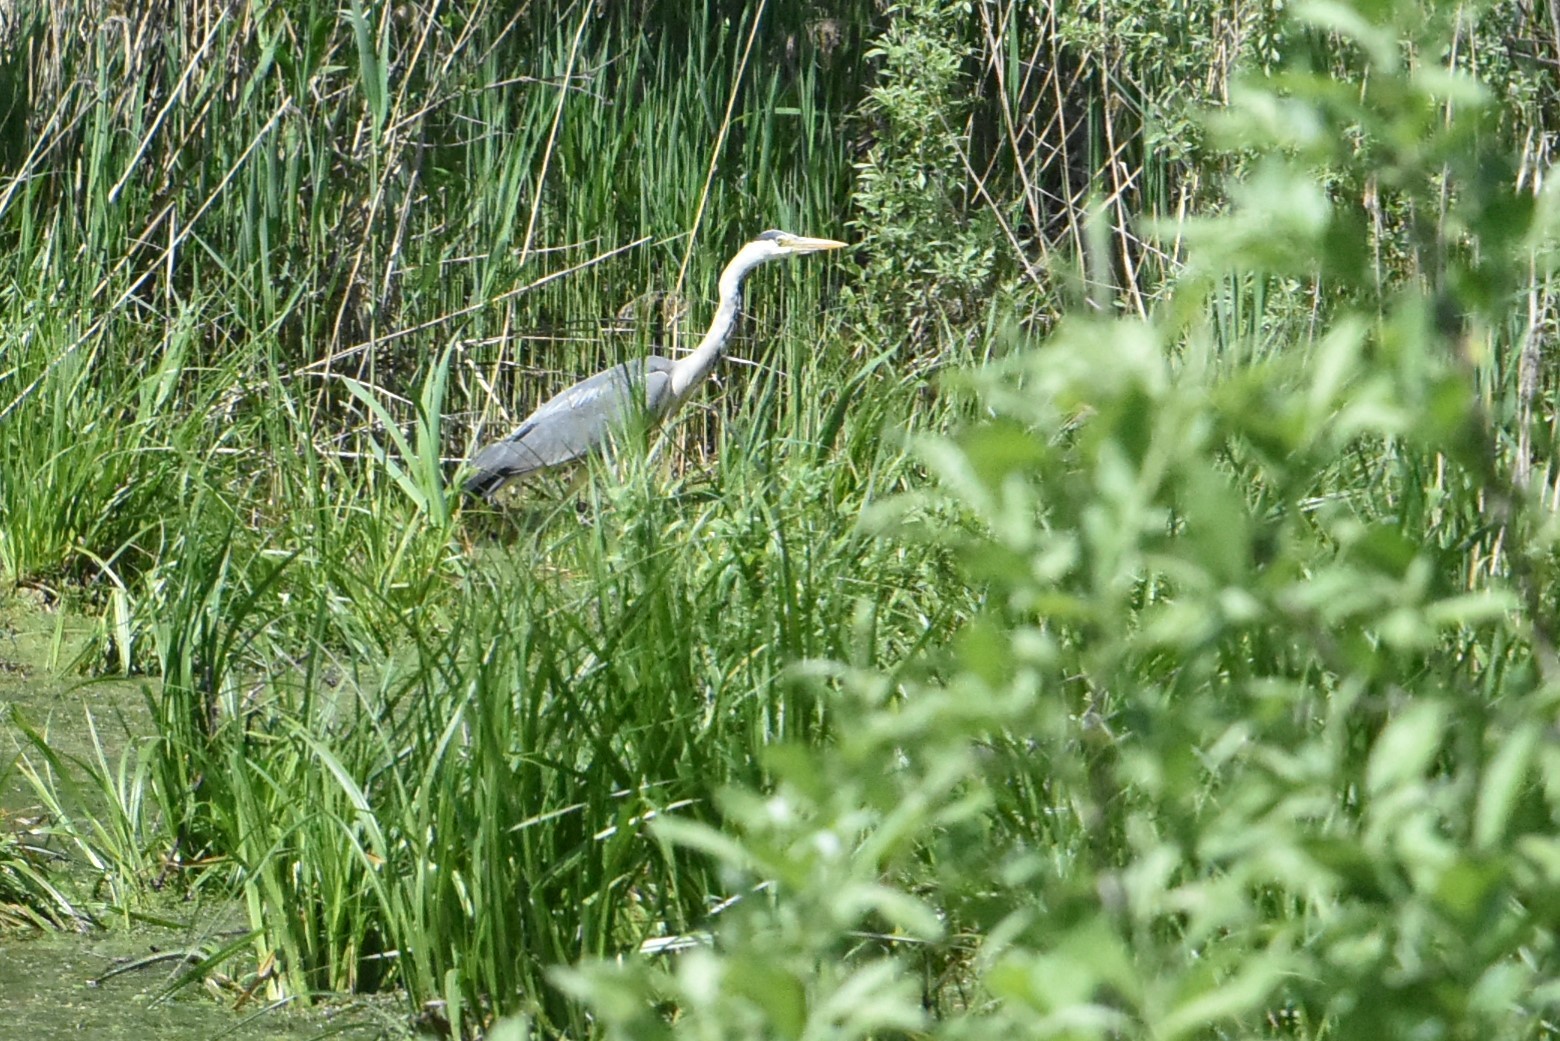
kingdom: Animalia
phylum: Chordata
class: Aves
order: Pelecaniformes
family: Ardeidae
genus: Ardea
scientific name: Ardea cinerea
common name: Grey heron
